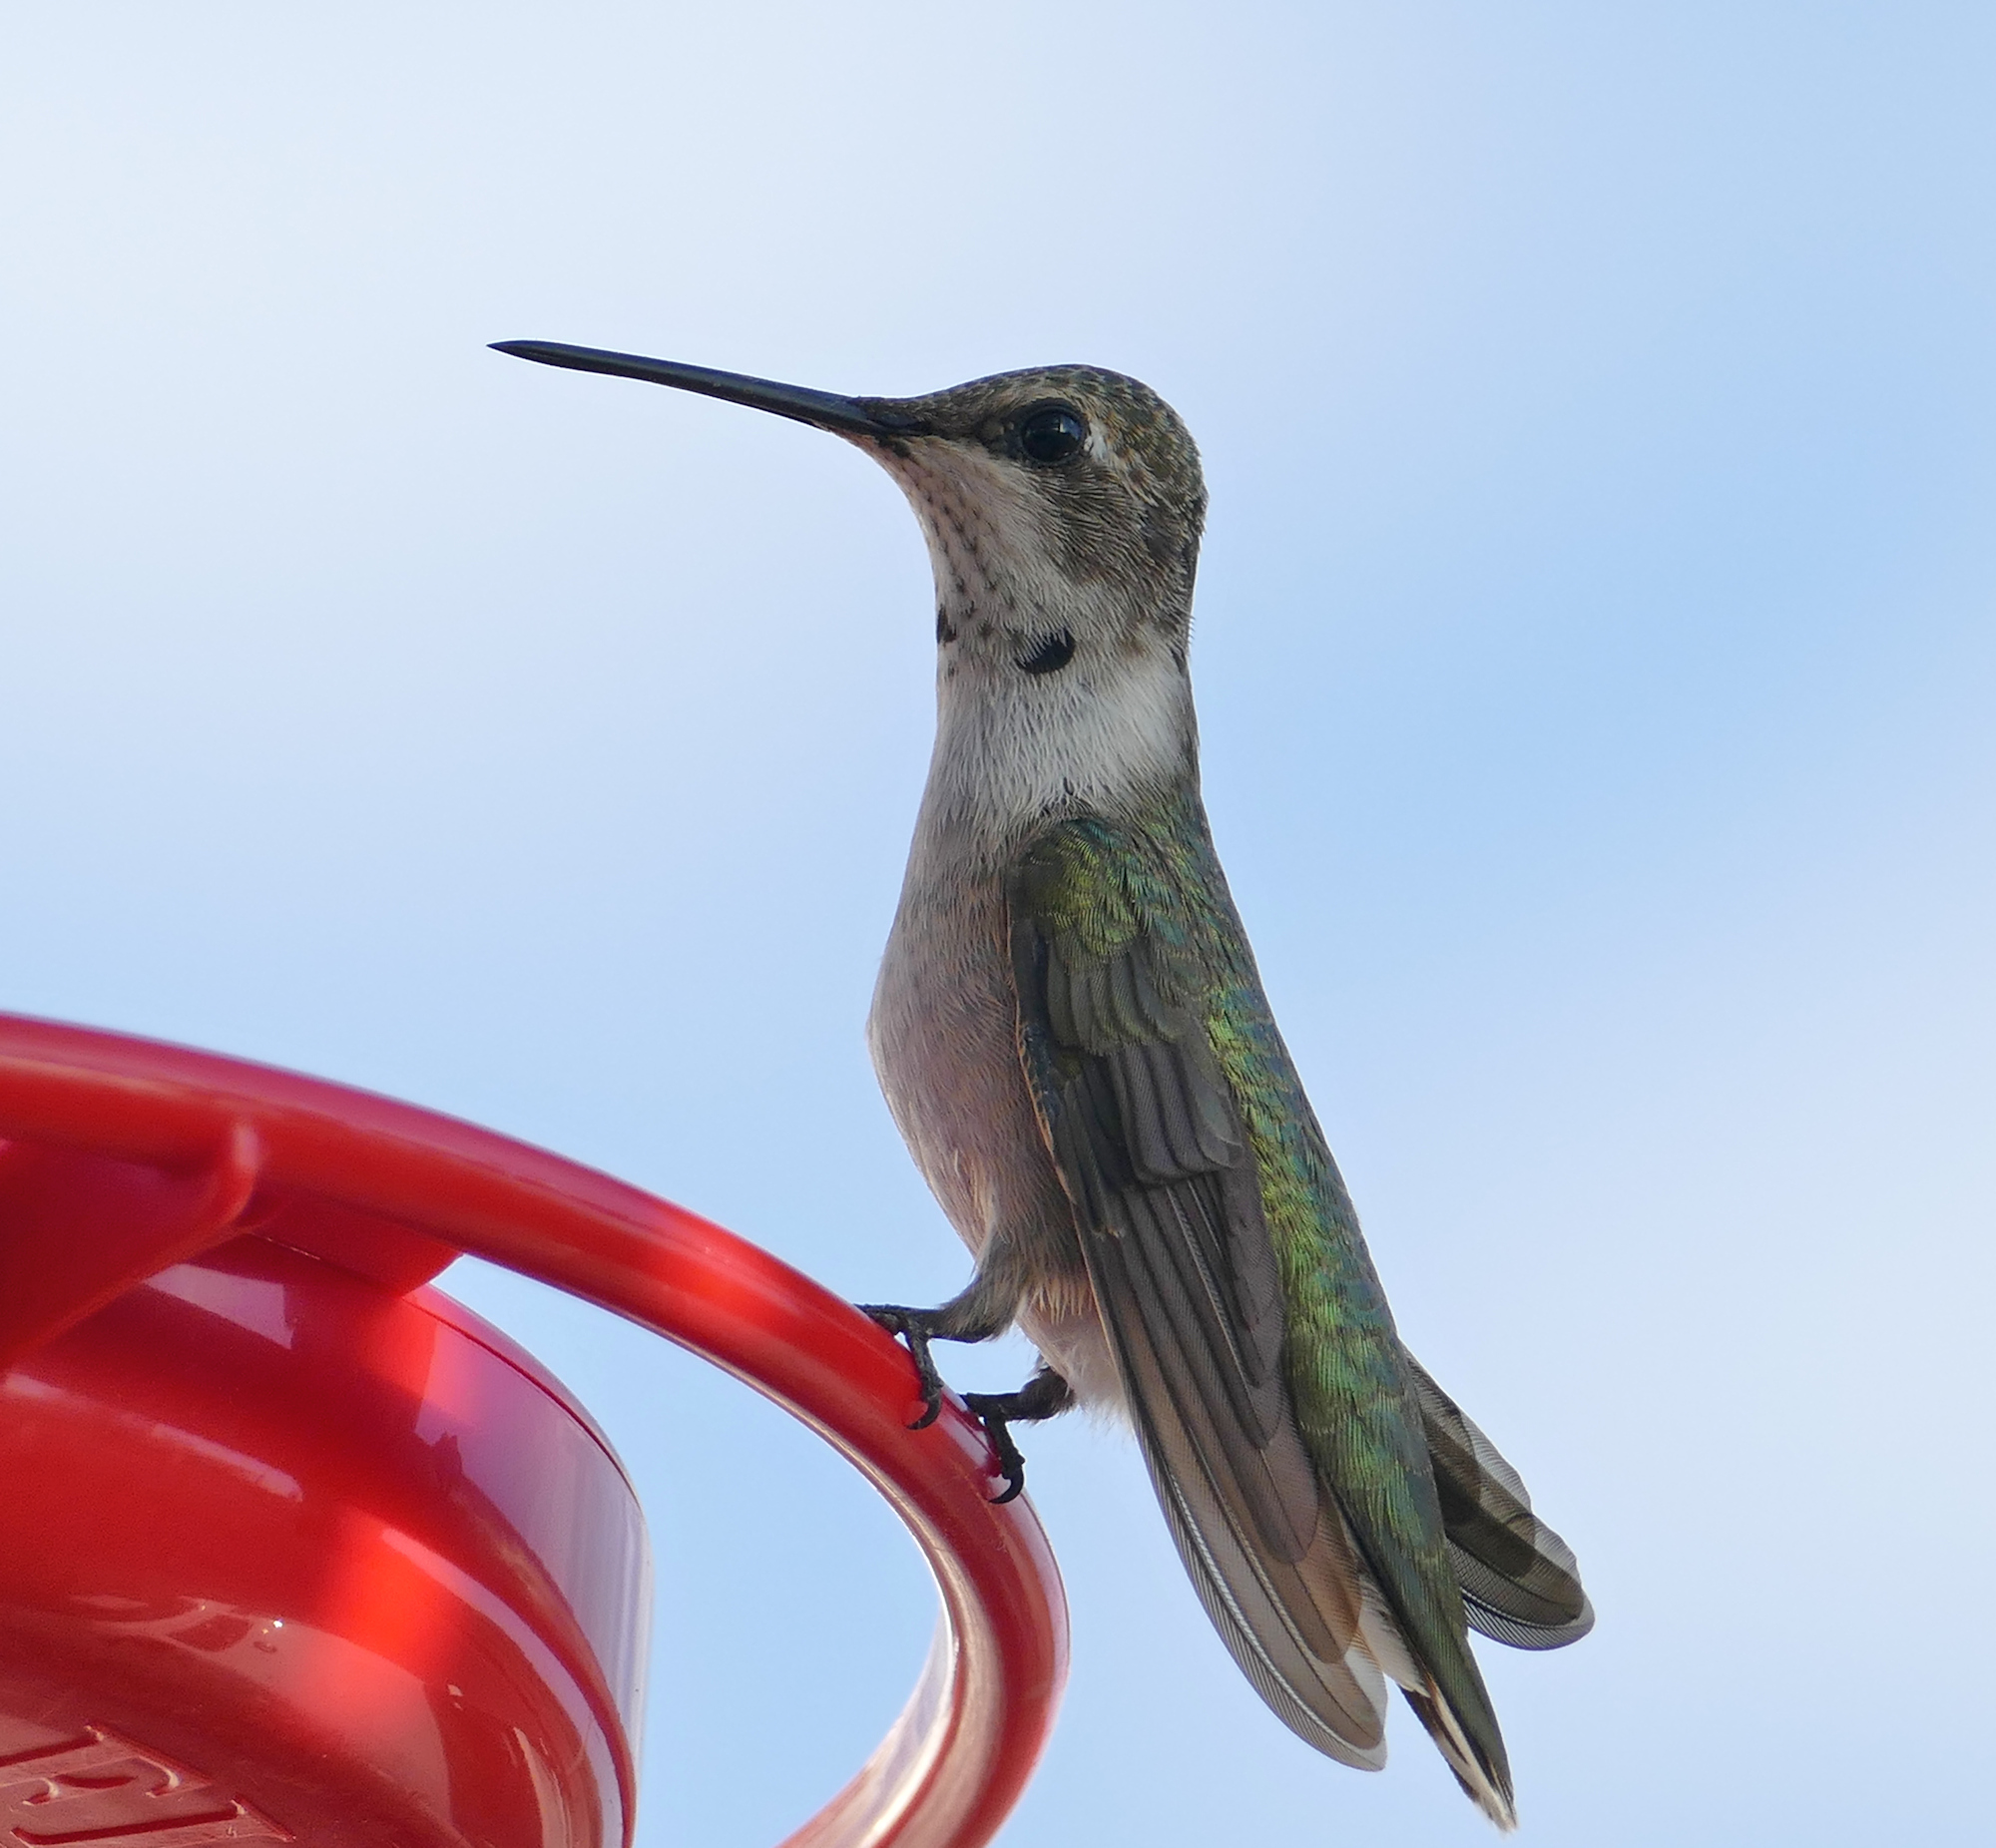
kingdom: Animalia
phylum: Chordata
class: Aves
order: Apodiformes
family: Trochilidae
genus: Archilochus
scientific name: Archilochus alexandri
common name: Black-chinned hummingbird
